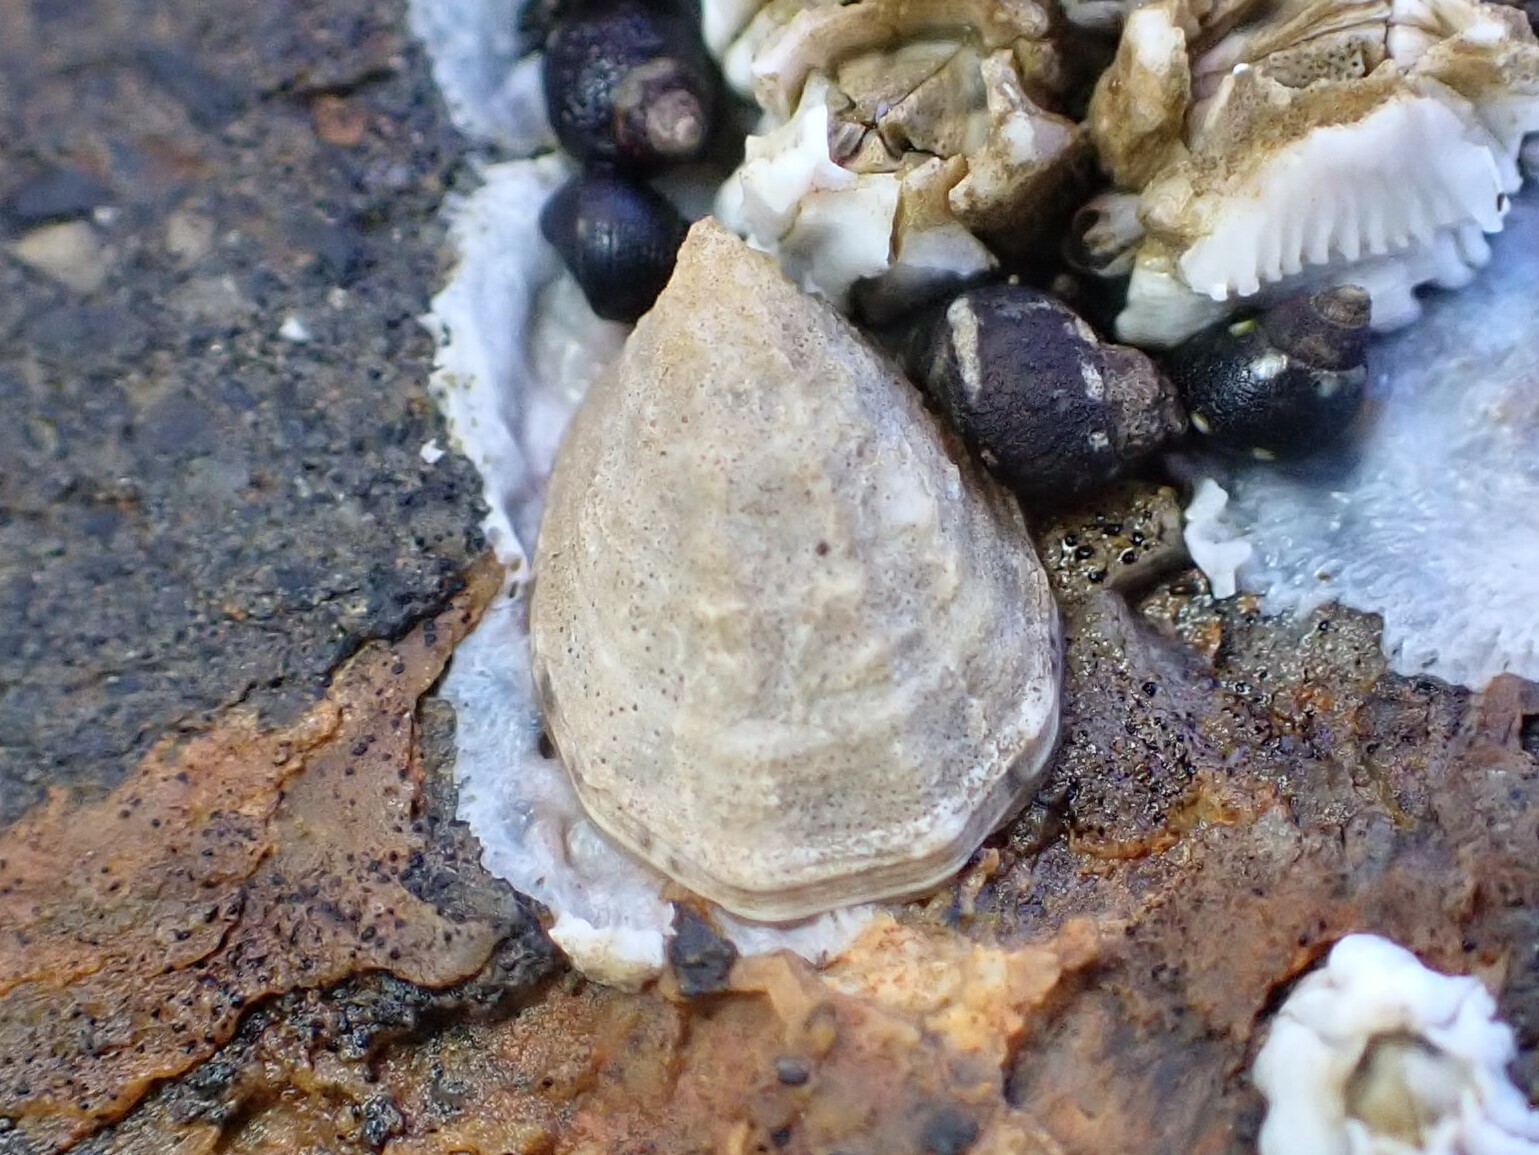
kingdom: Animalia
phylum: Mollusca
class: Gastropoda
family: Lottiidae
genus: Lottia
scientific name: Lottia digitalis
